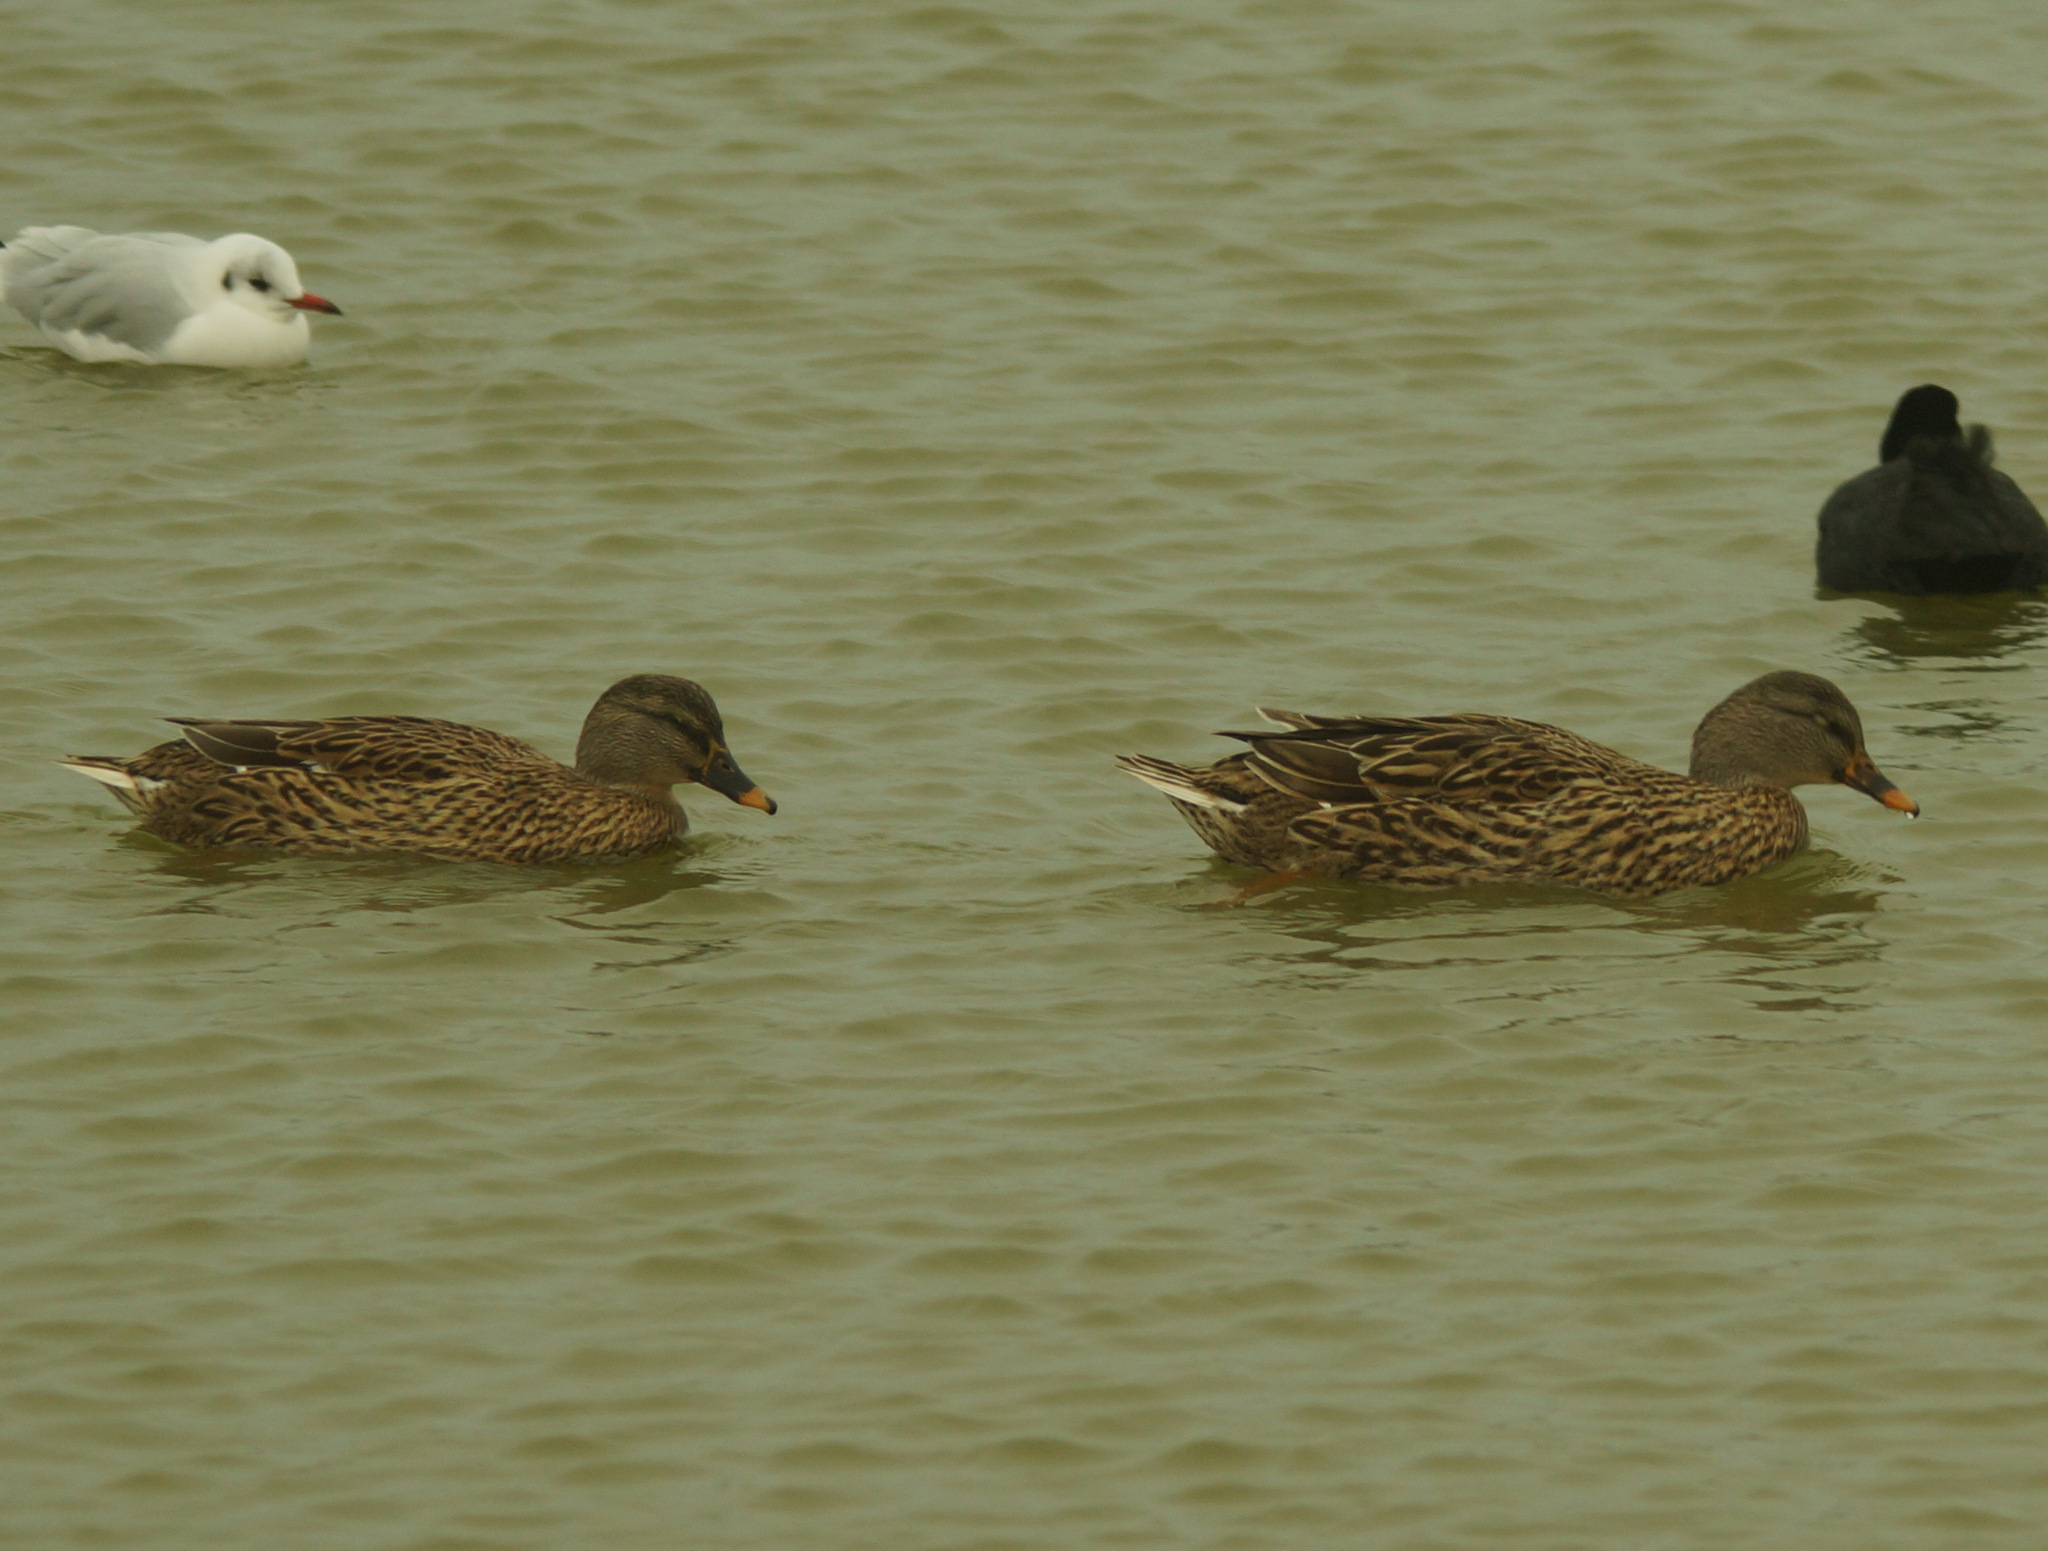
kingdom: Animalia
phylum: Chordata
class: Aves
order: Anseriformes
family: Anatidae
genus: Anas
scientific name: Anas platyrhynchos
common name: Mallard
